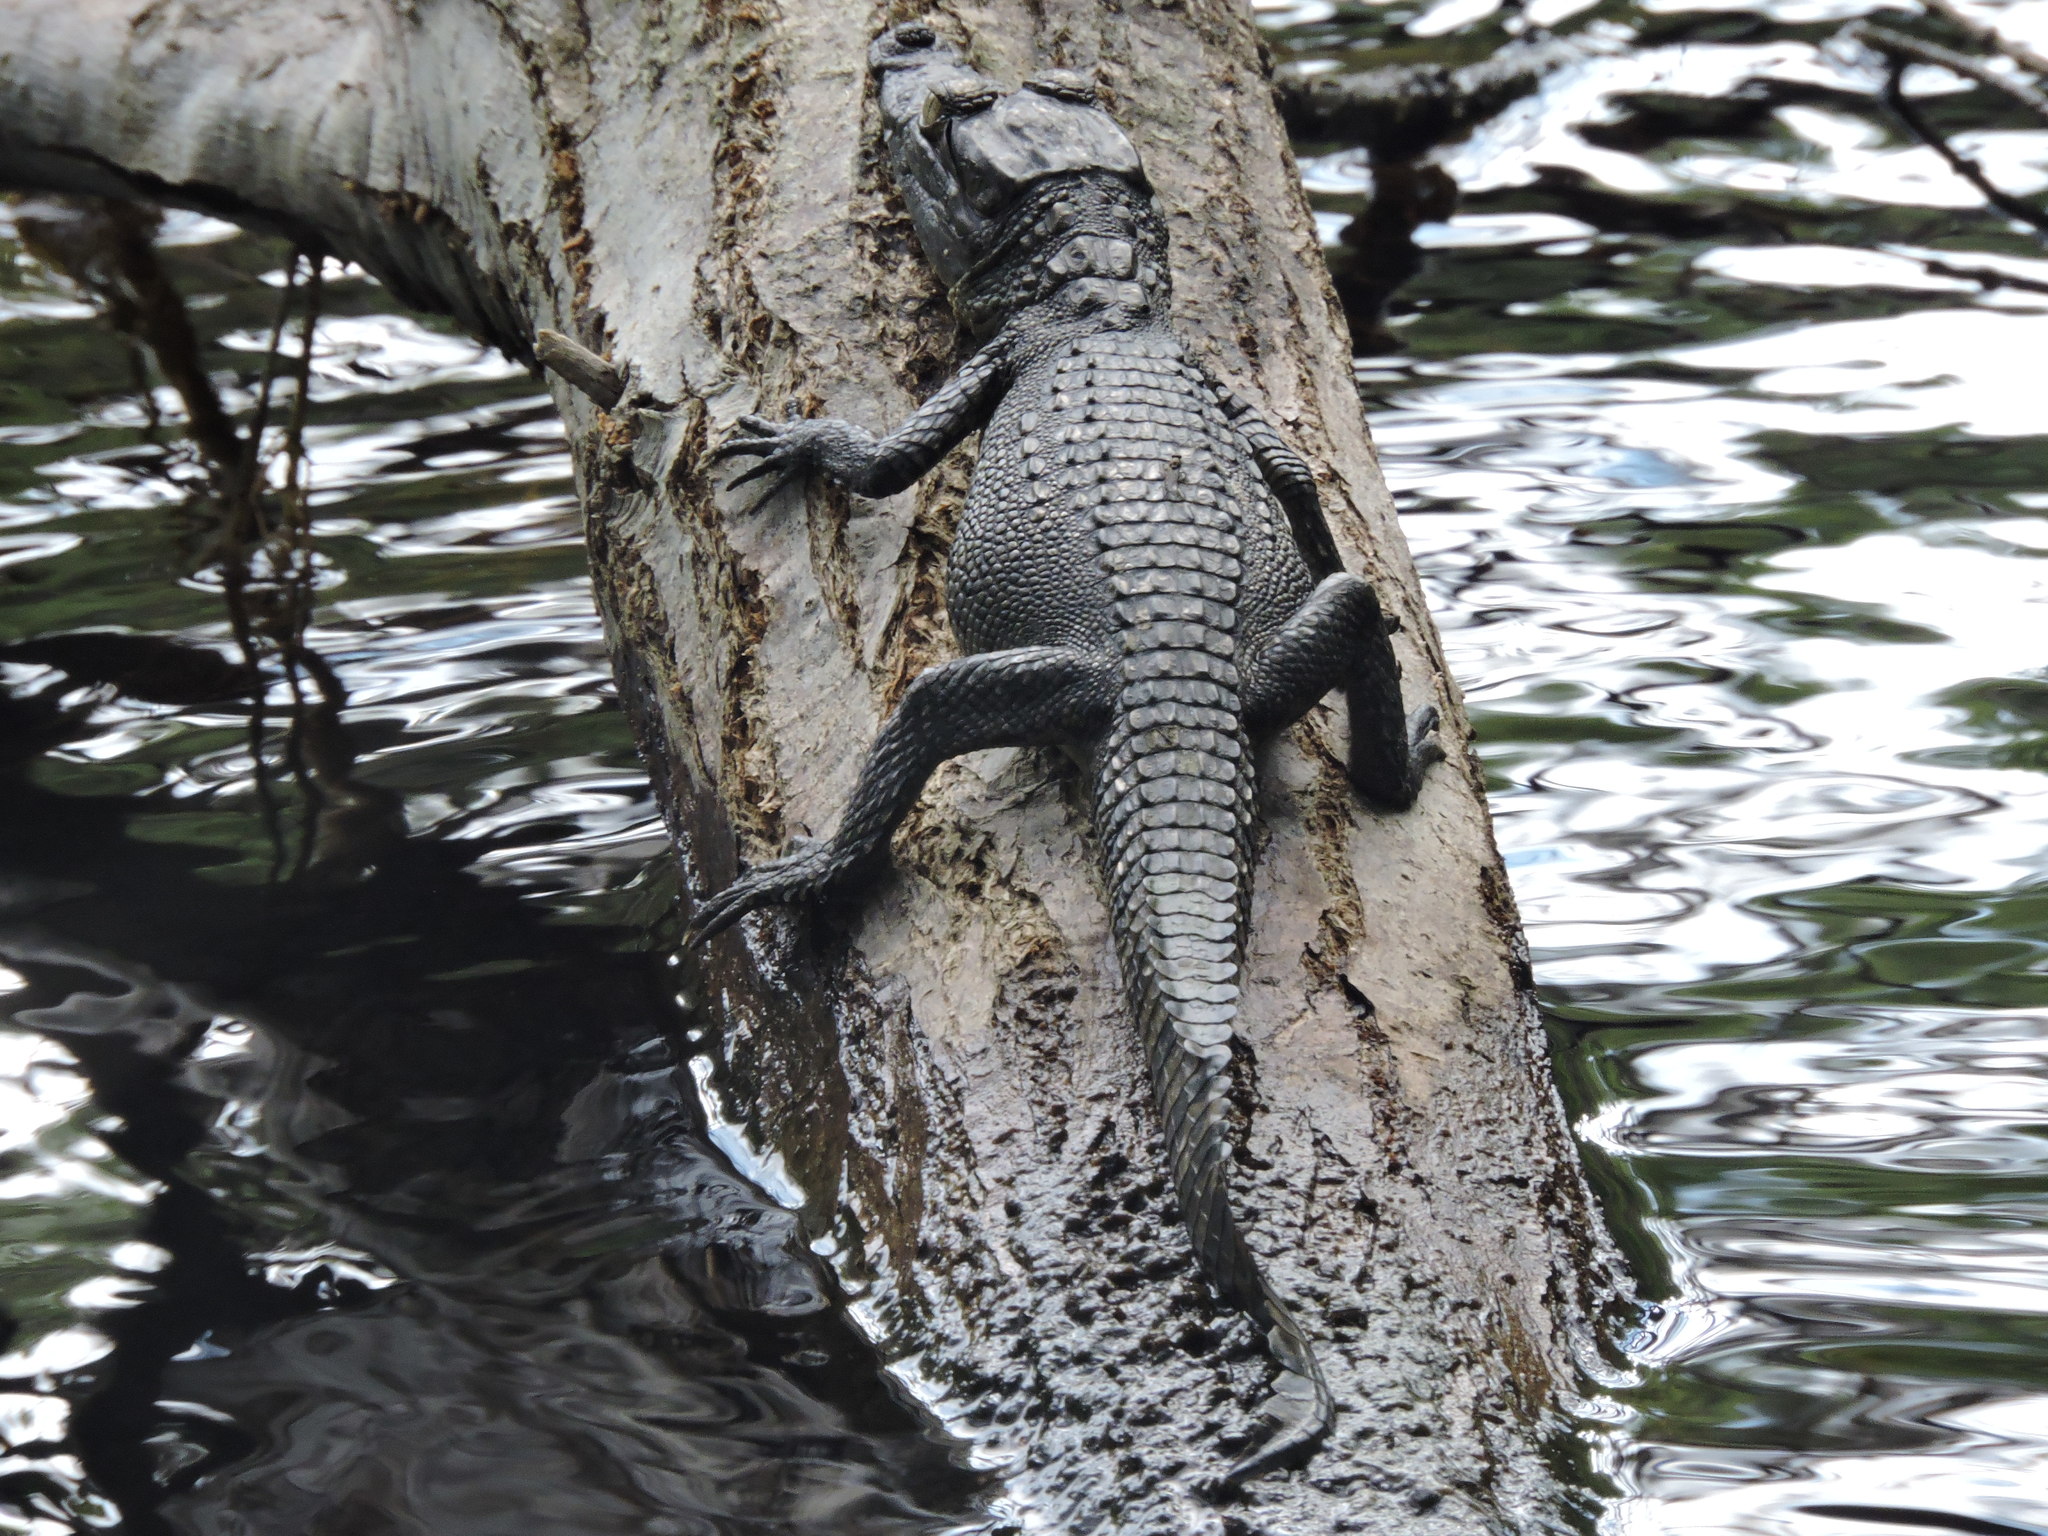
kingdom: Animalia
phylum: Chordata
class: Crocodylia
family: Crocodylidae
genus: Crocodylus
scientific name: Crocodylus moreletii
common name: Morelet's crocodile
